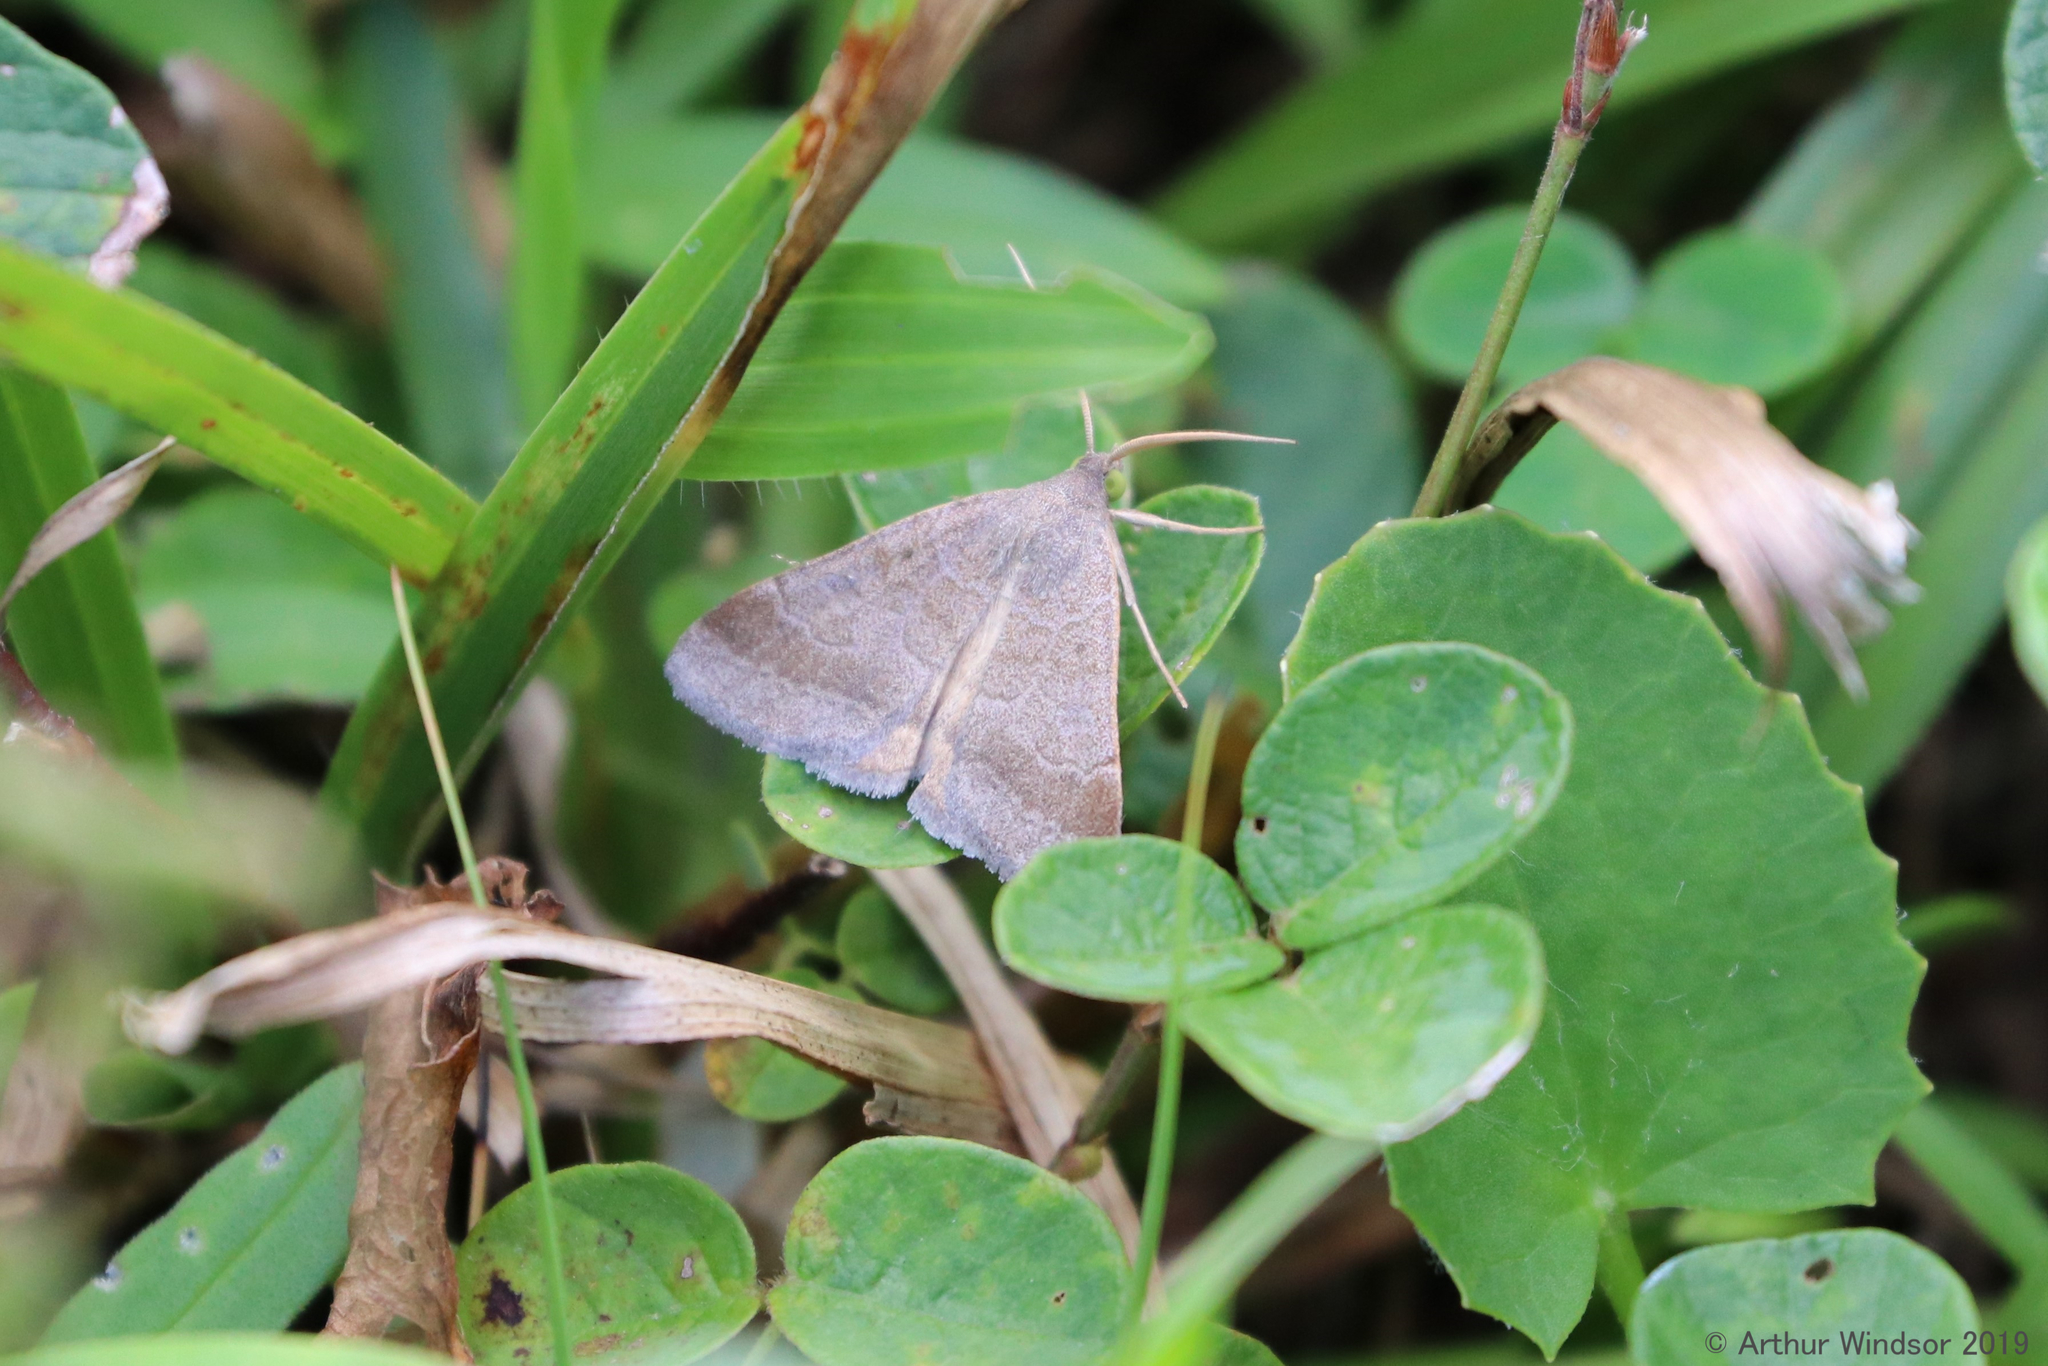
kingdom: Animalia
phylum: Arthropoda
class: Insecta
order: Lepidoptera
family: Erebidae
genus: Caenurgia
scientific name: Caenurgia chloropha
